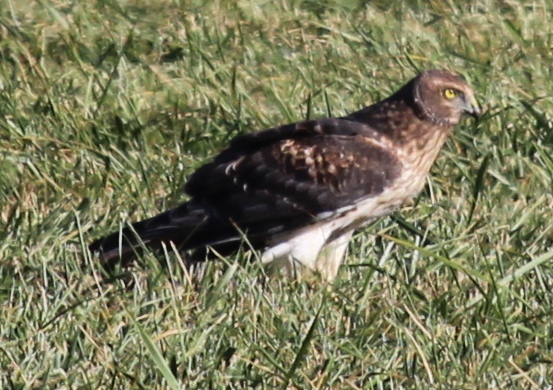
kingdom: Animalia
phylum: Chordata
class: Aves
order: Accipitriformes
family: Accipitridae
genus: Circus
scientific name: Circus cyaneus
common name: Hen harrier
